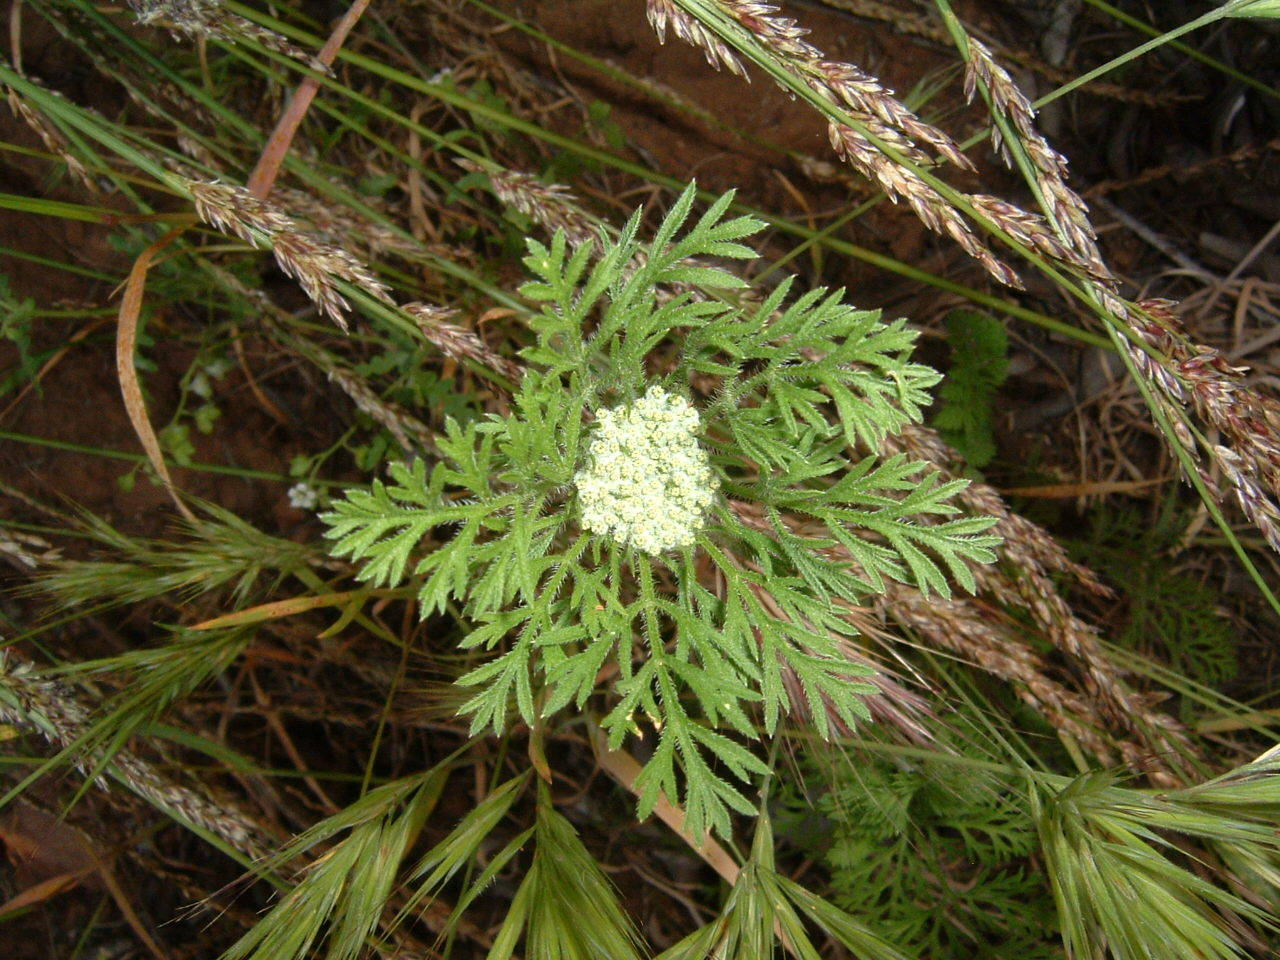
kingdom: Plantae
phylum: Tracheophyta
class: Magnoliopsida
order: Apiales
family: Apiaceae
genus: Daucus
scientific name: Daucus pusillus
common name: Southwest wild carrot
